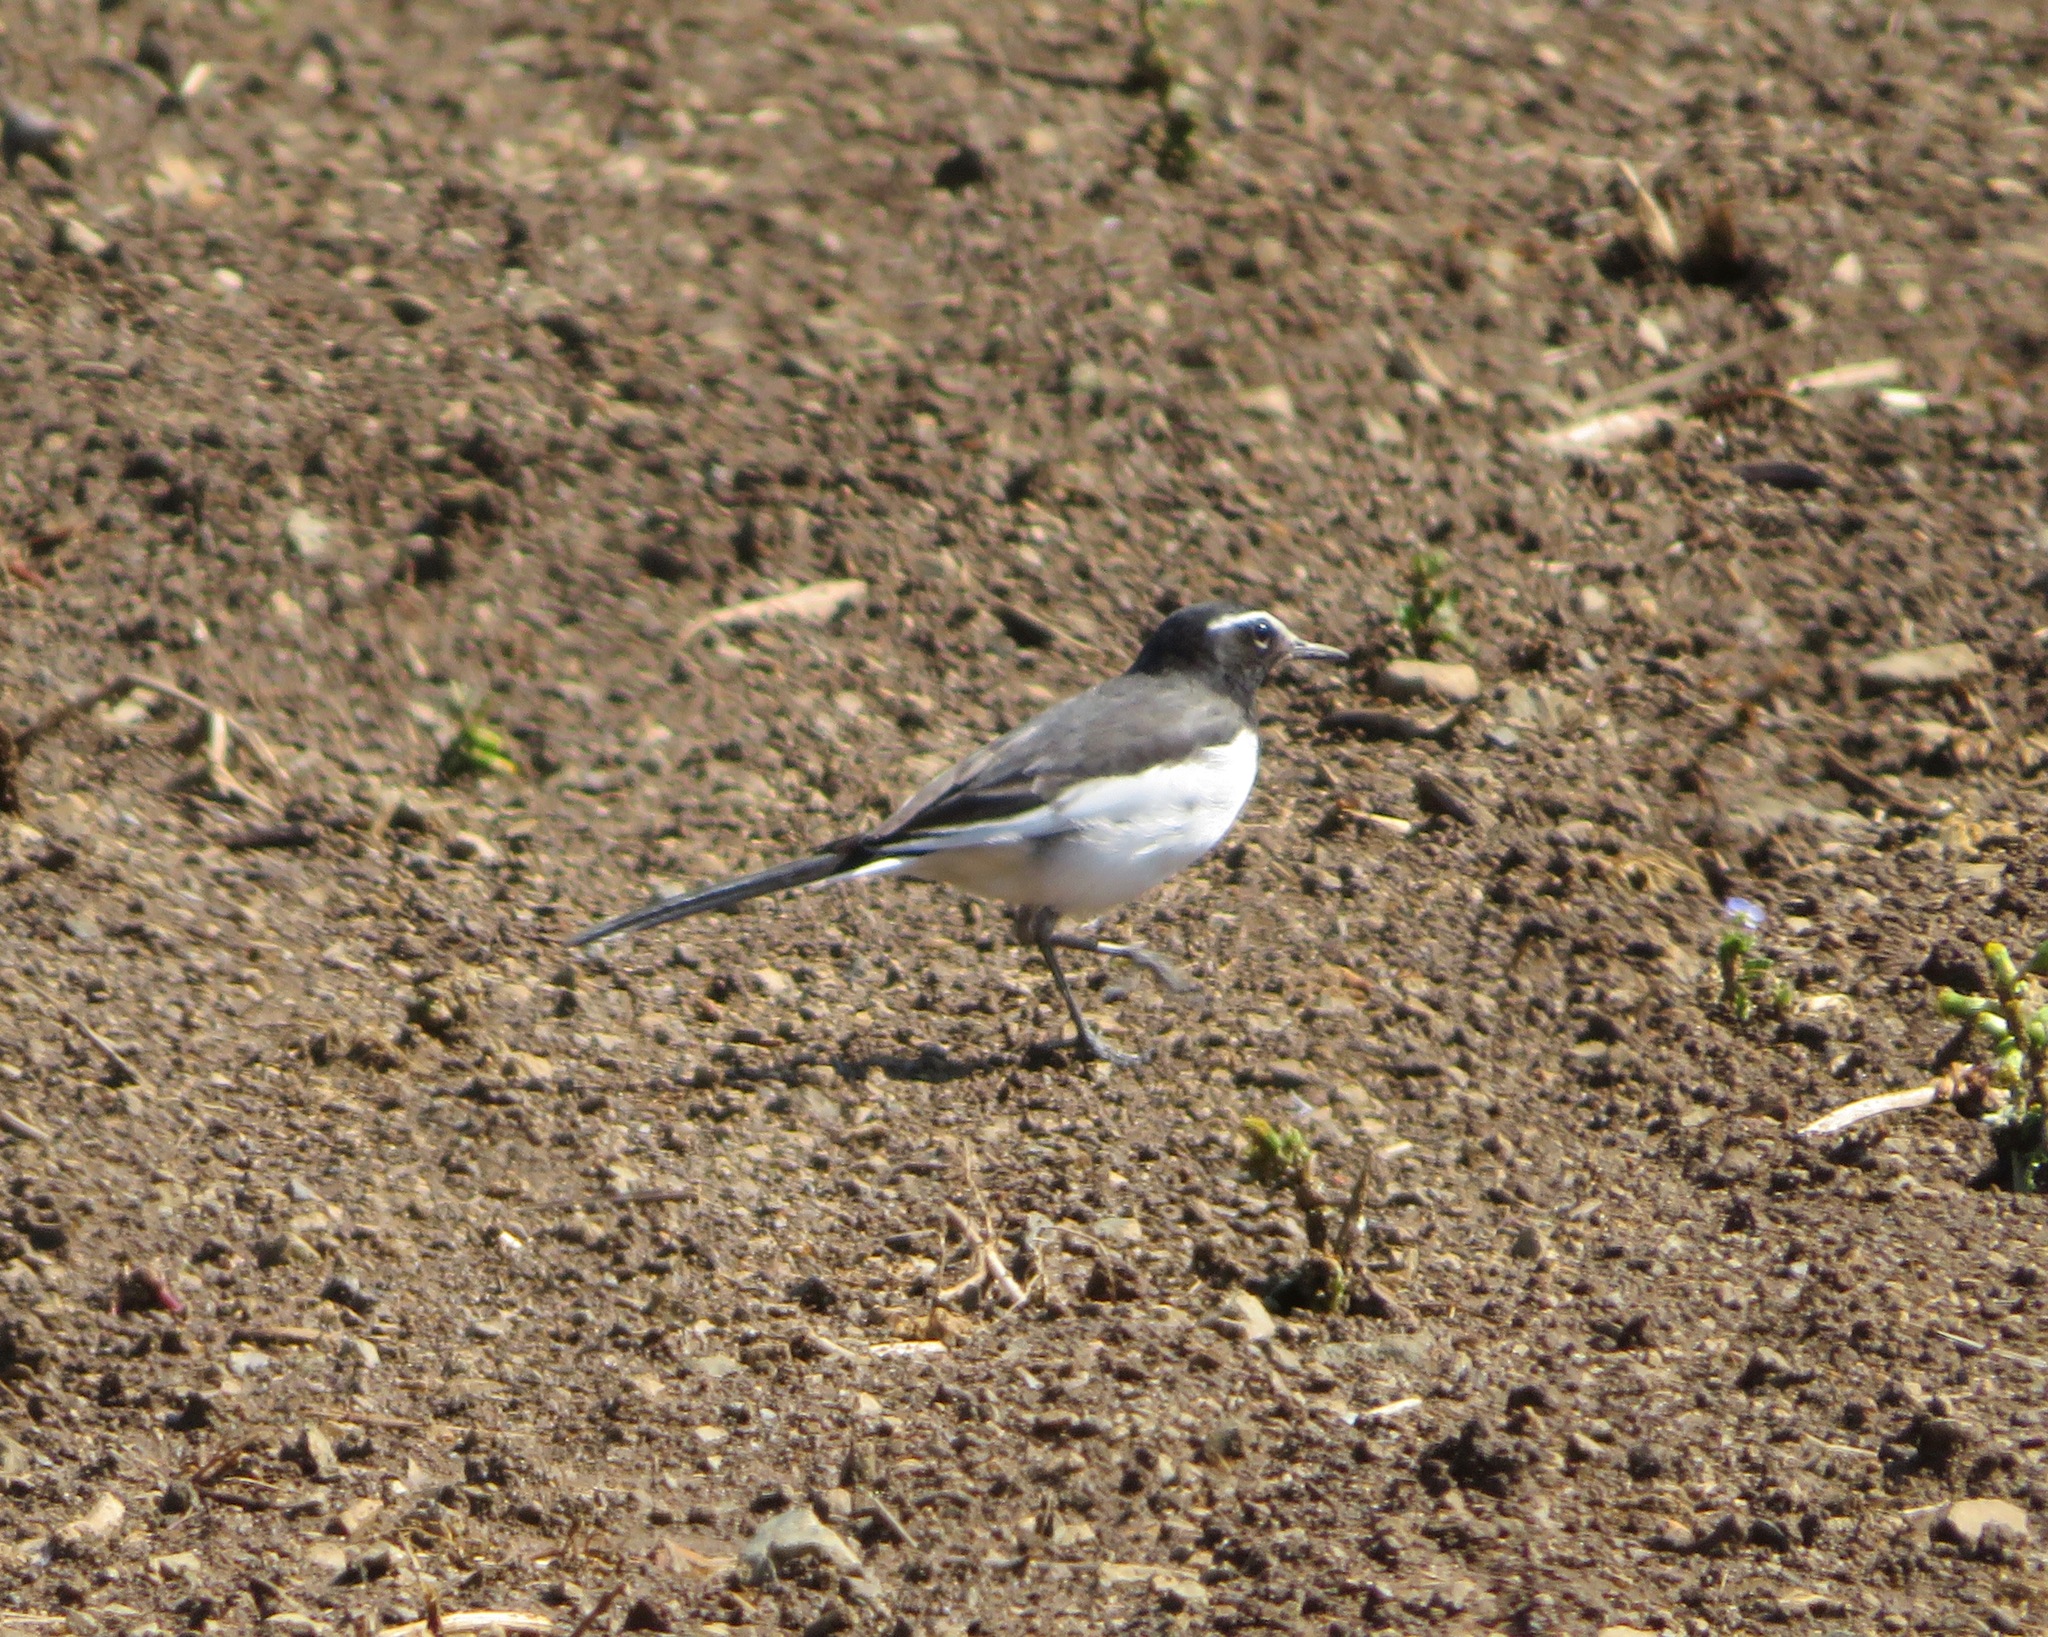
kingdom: Animalia
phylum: Chordata
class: Aves
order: Passeriformes
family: Motacillidae
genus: Motacilla
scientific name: Motacilla grandis
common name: Japanese wagtail
